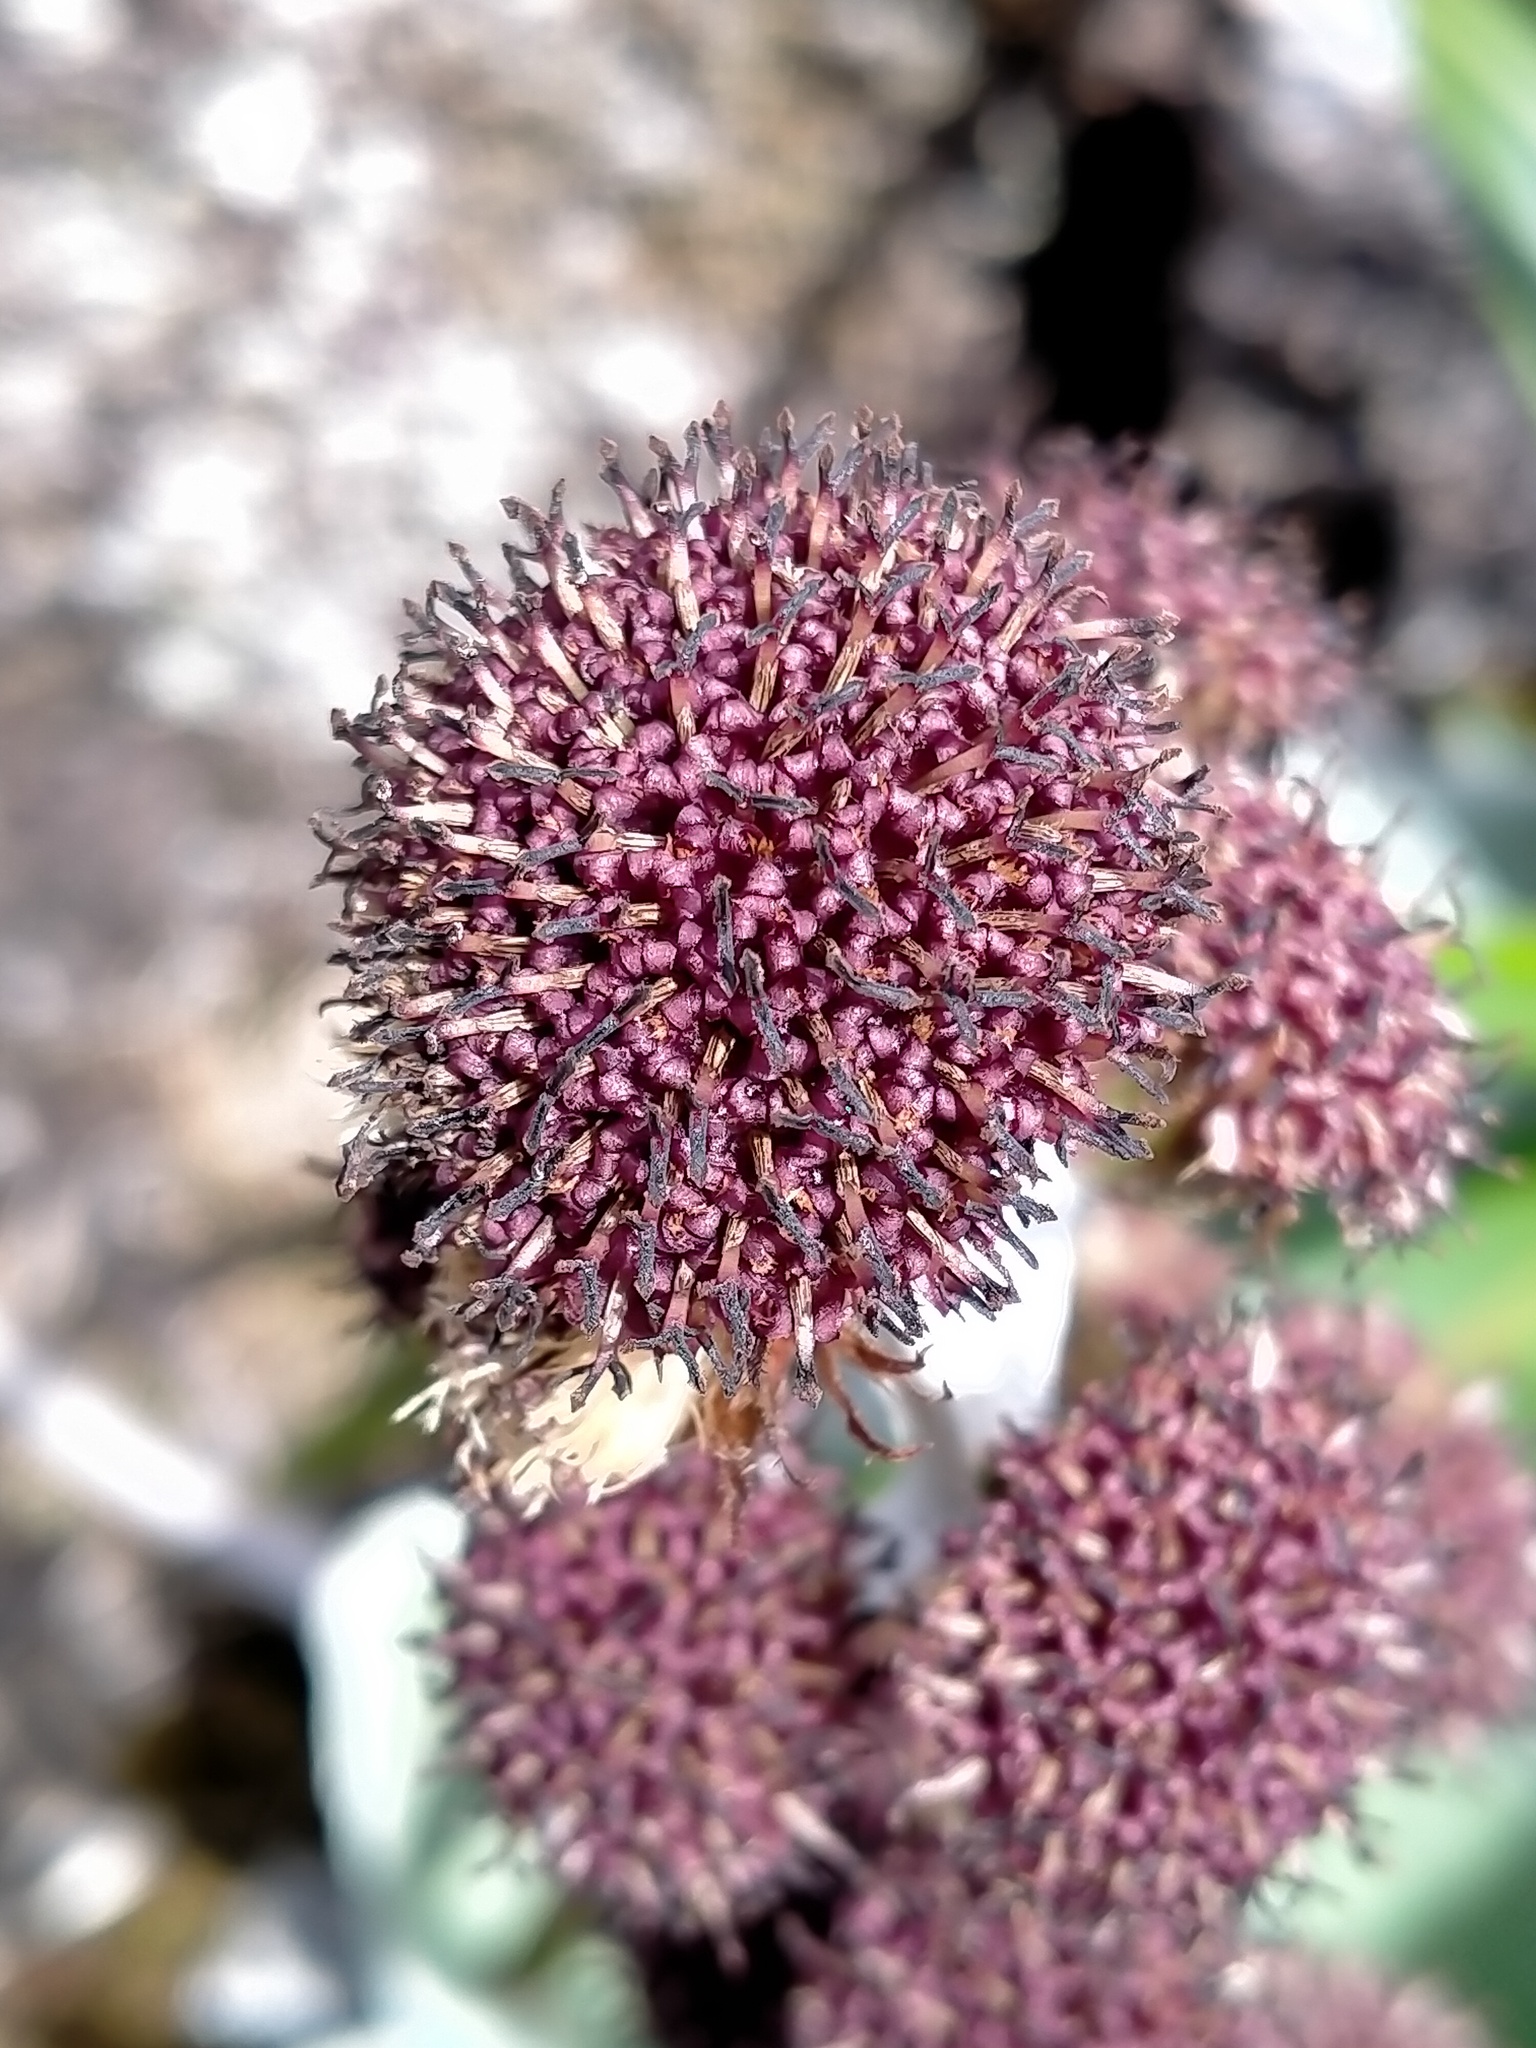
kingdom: Plantae
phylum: Tracheophyta
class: Magnoliopsida
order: Asterales
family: Asteraceae
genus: Pleurophyllum
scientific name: Pleurophyllum hookeri
